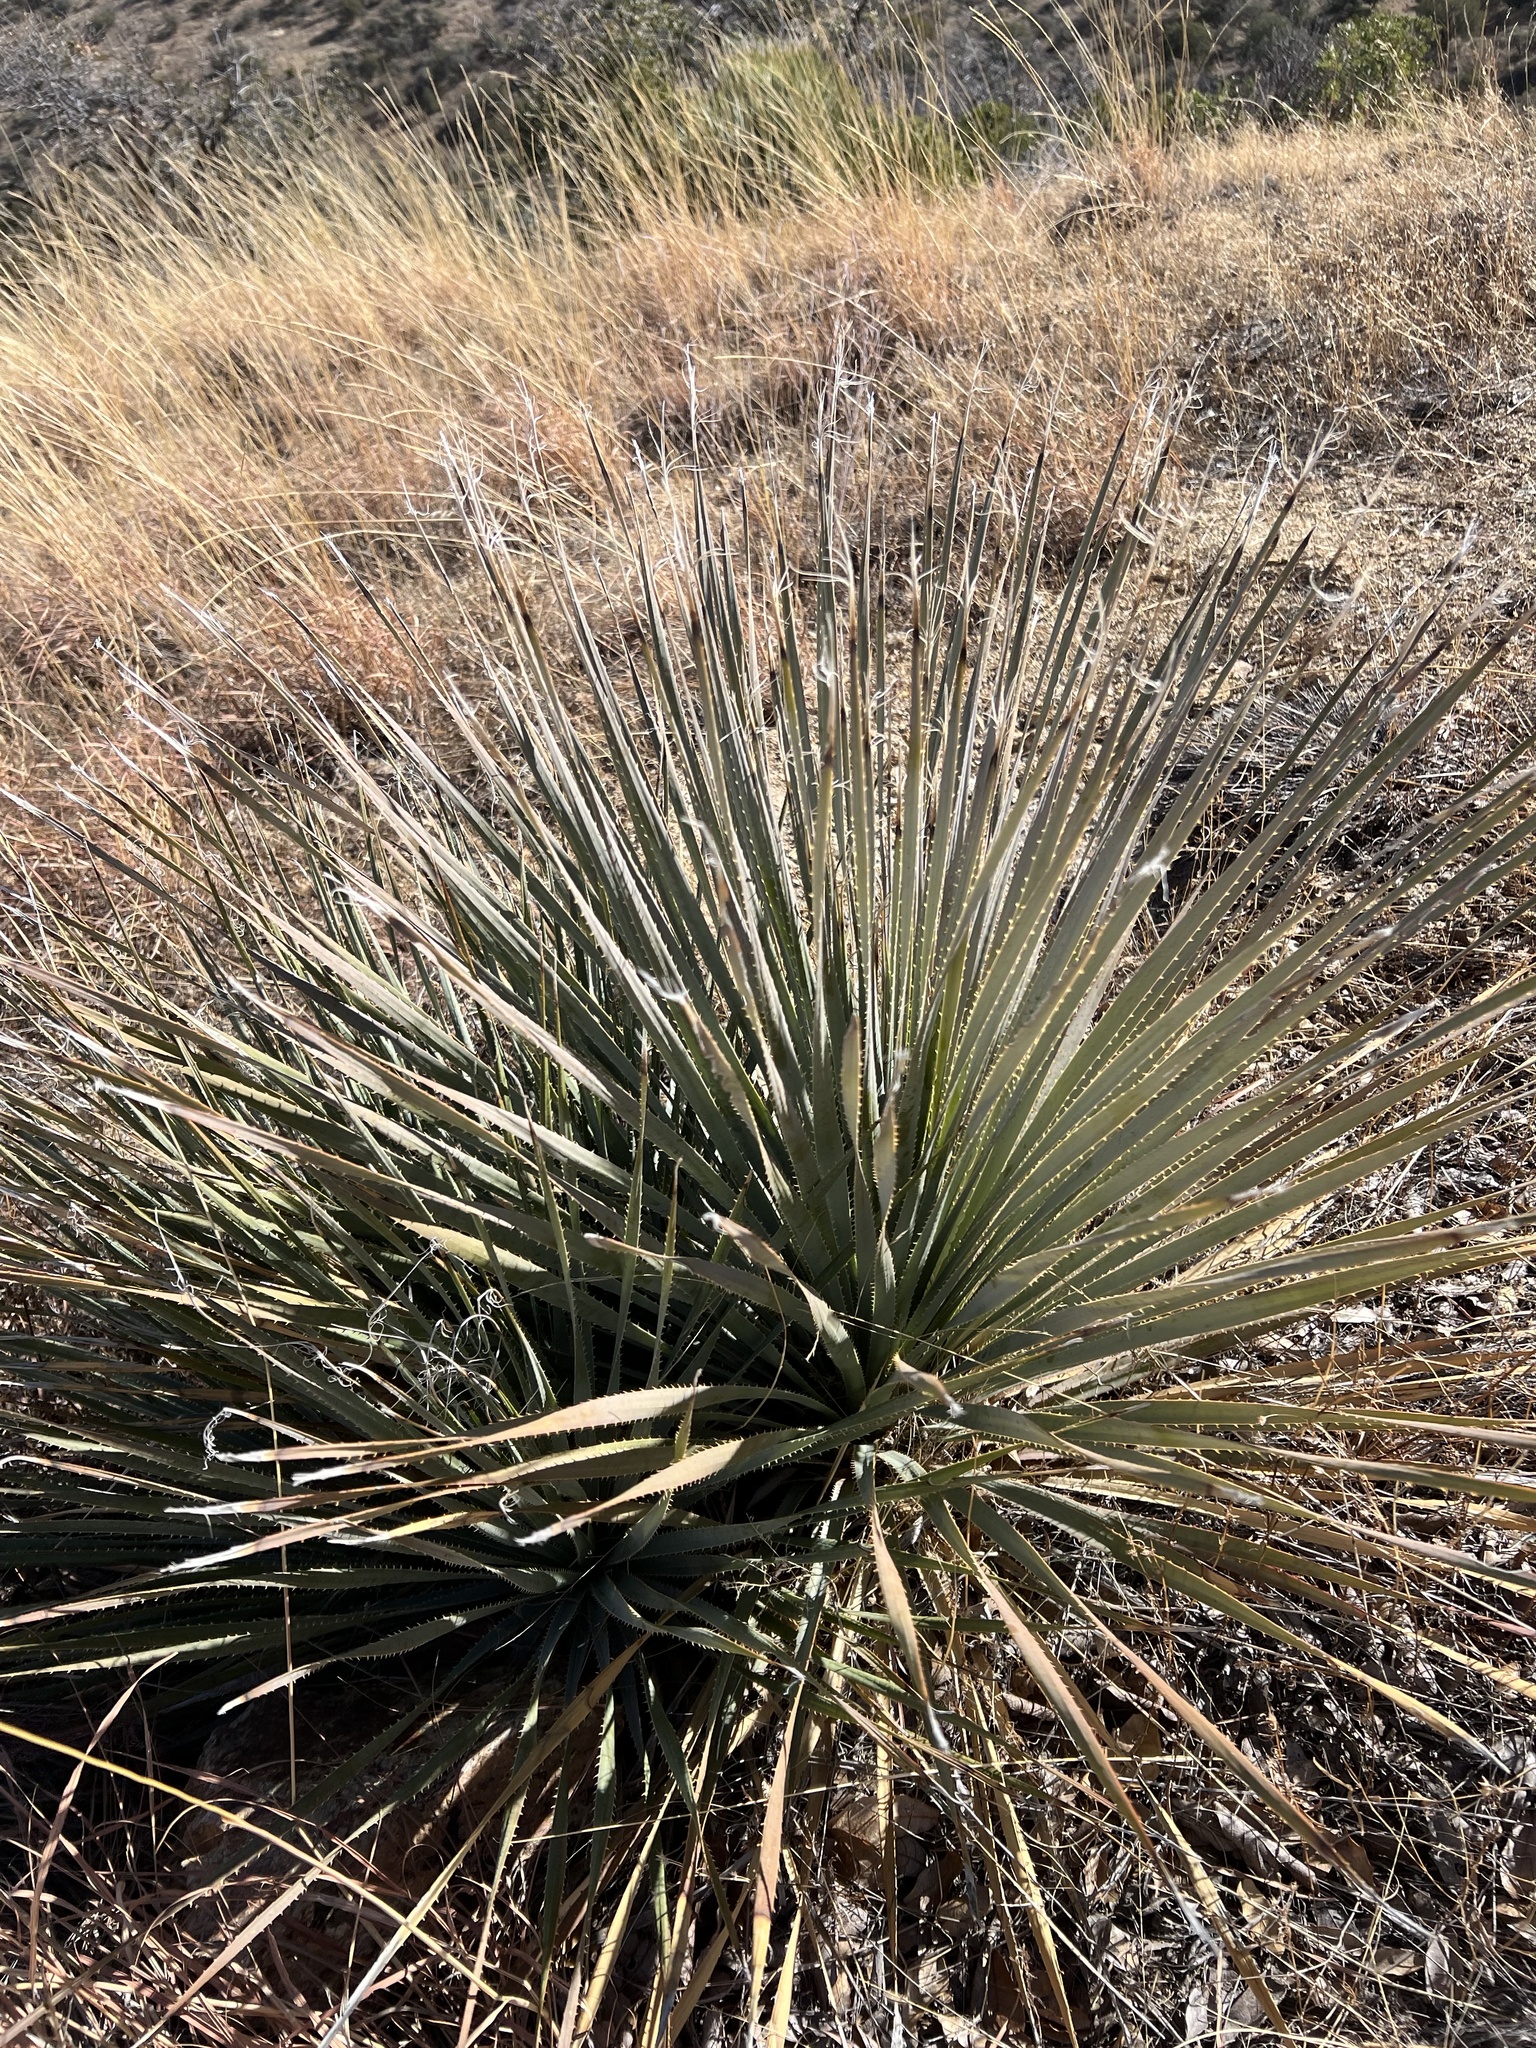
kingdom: Plantae
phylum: Tracheophyta
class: Liliopsida
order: Asparagales
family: Asparagaceae
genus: Dasylirion
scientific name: Dasylirion wheeleri
